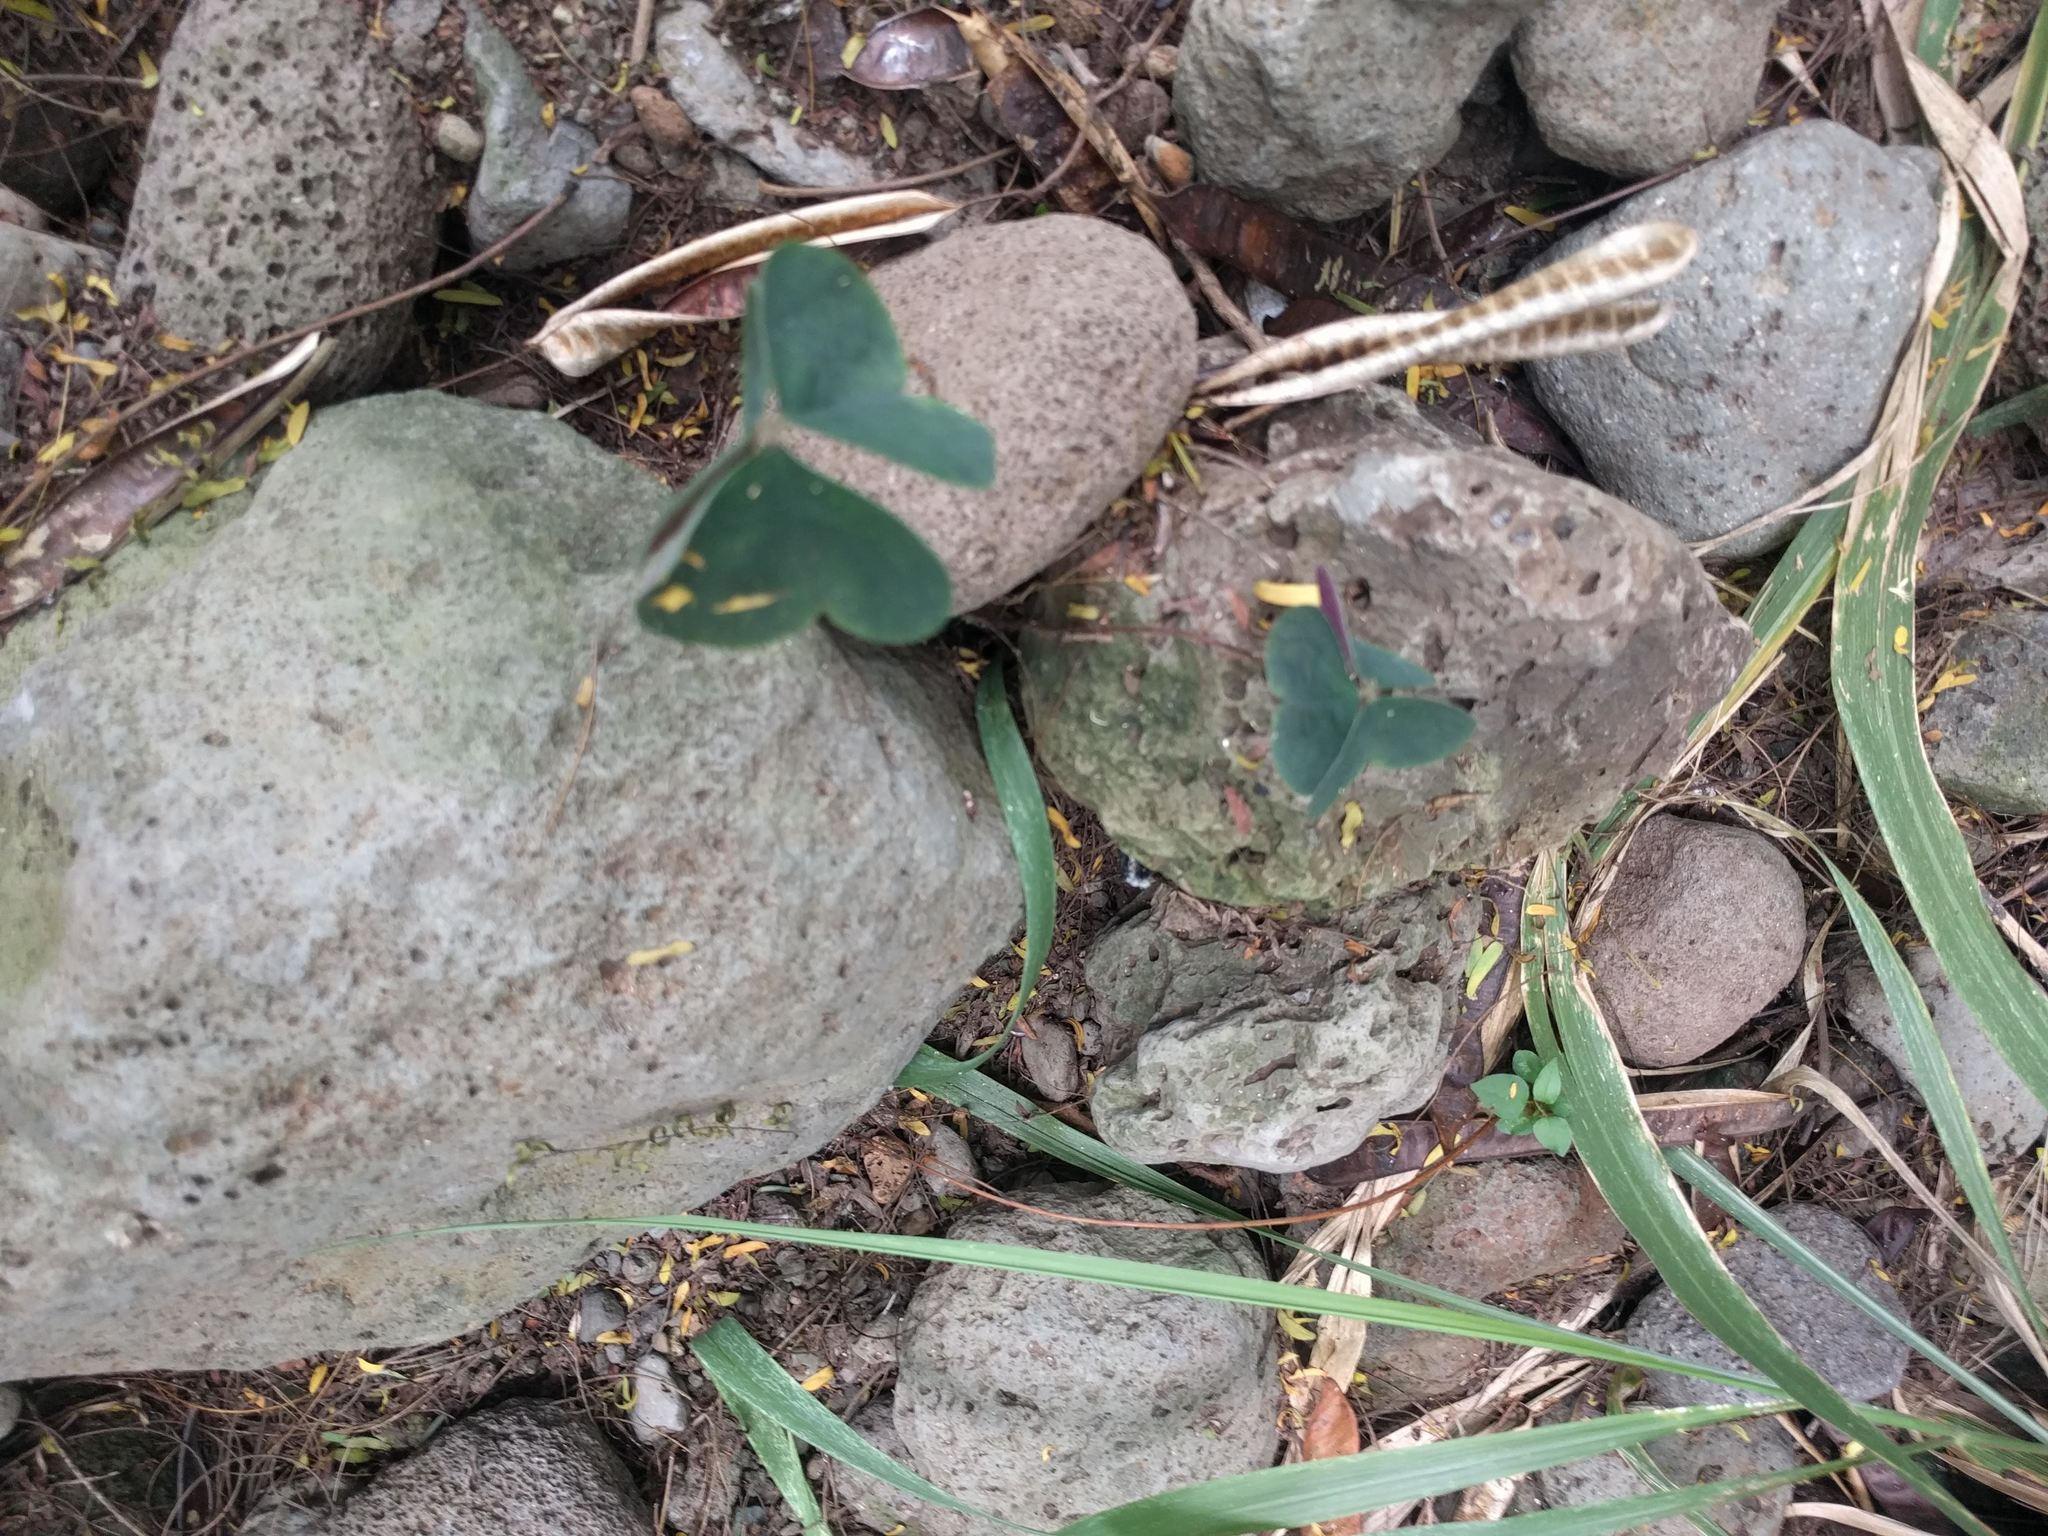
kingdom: Plantae
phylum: Tracheophyta
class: Magnoliopsida
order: Oxalidales
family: Oxalidaceae
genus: Oxalis
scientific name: Oxalis debilis
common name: Large-flowered pink-sorrel
